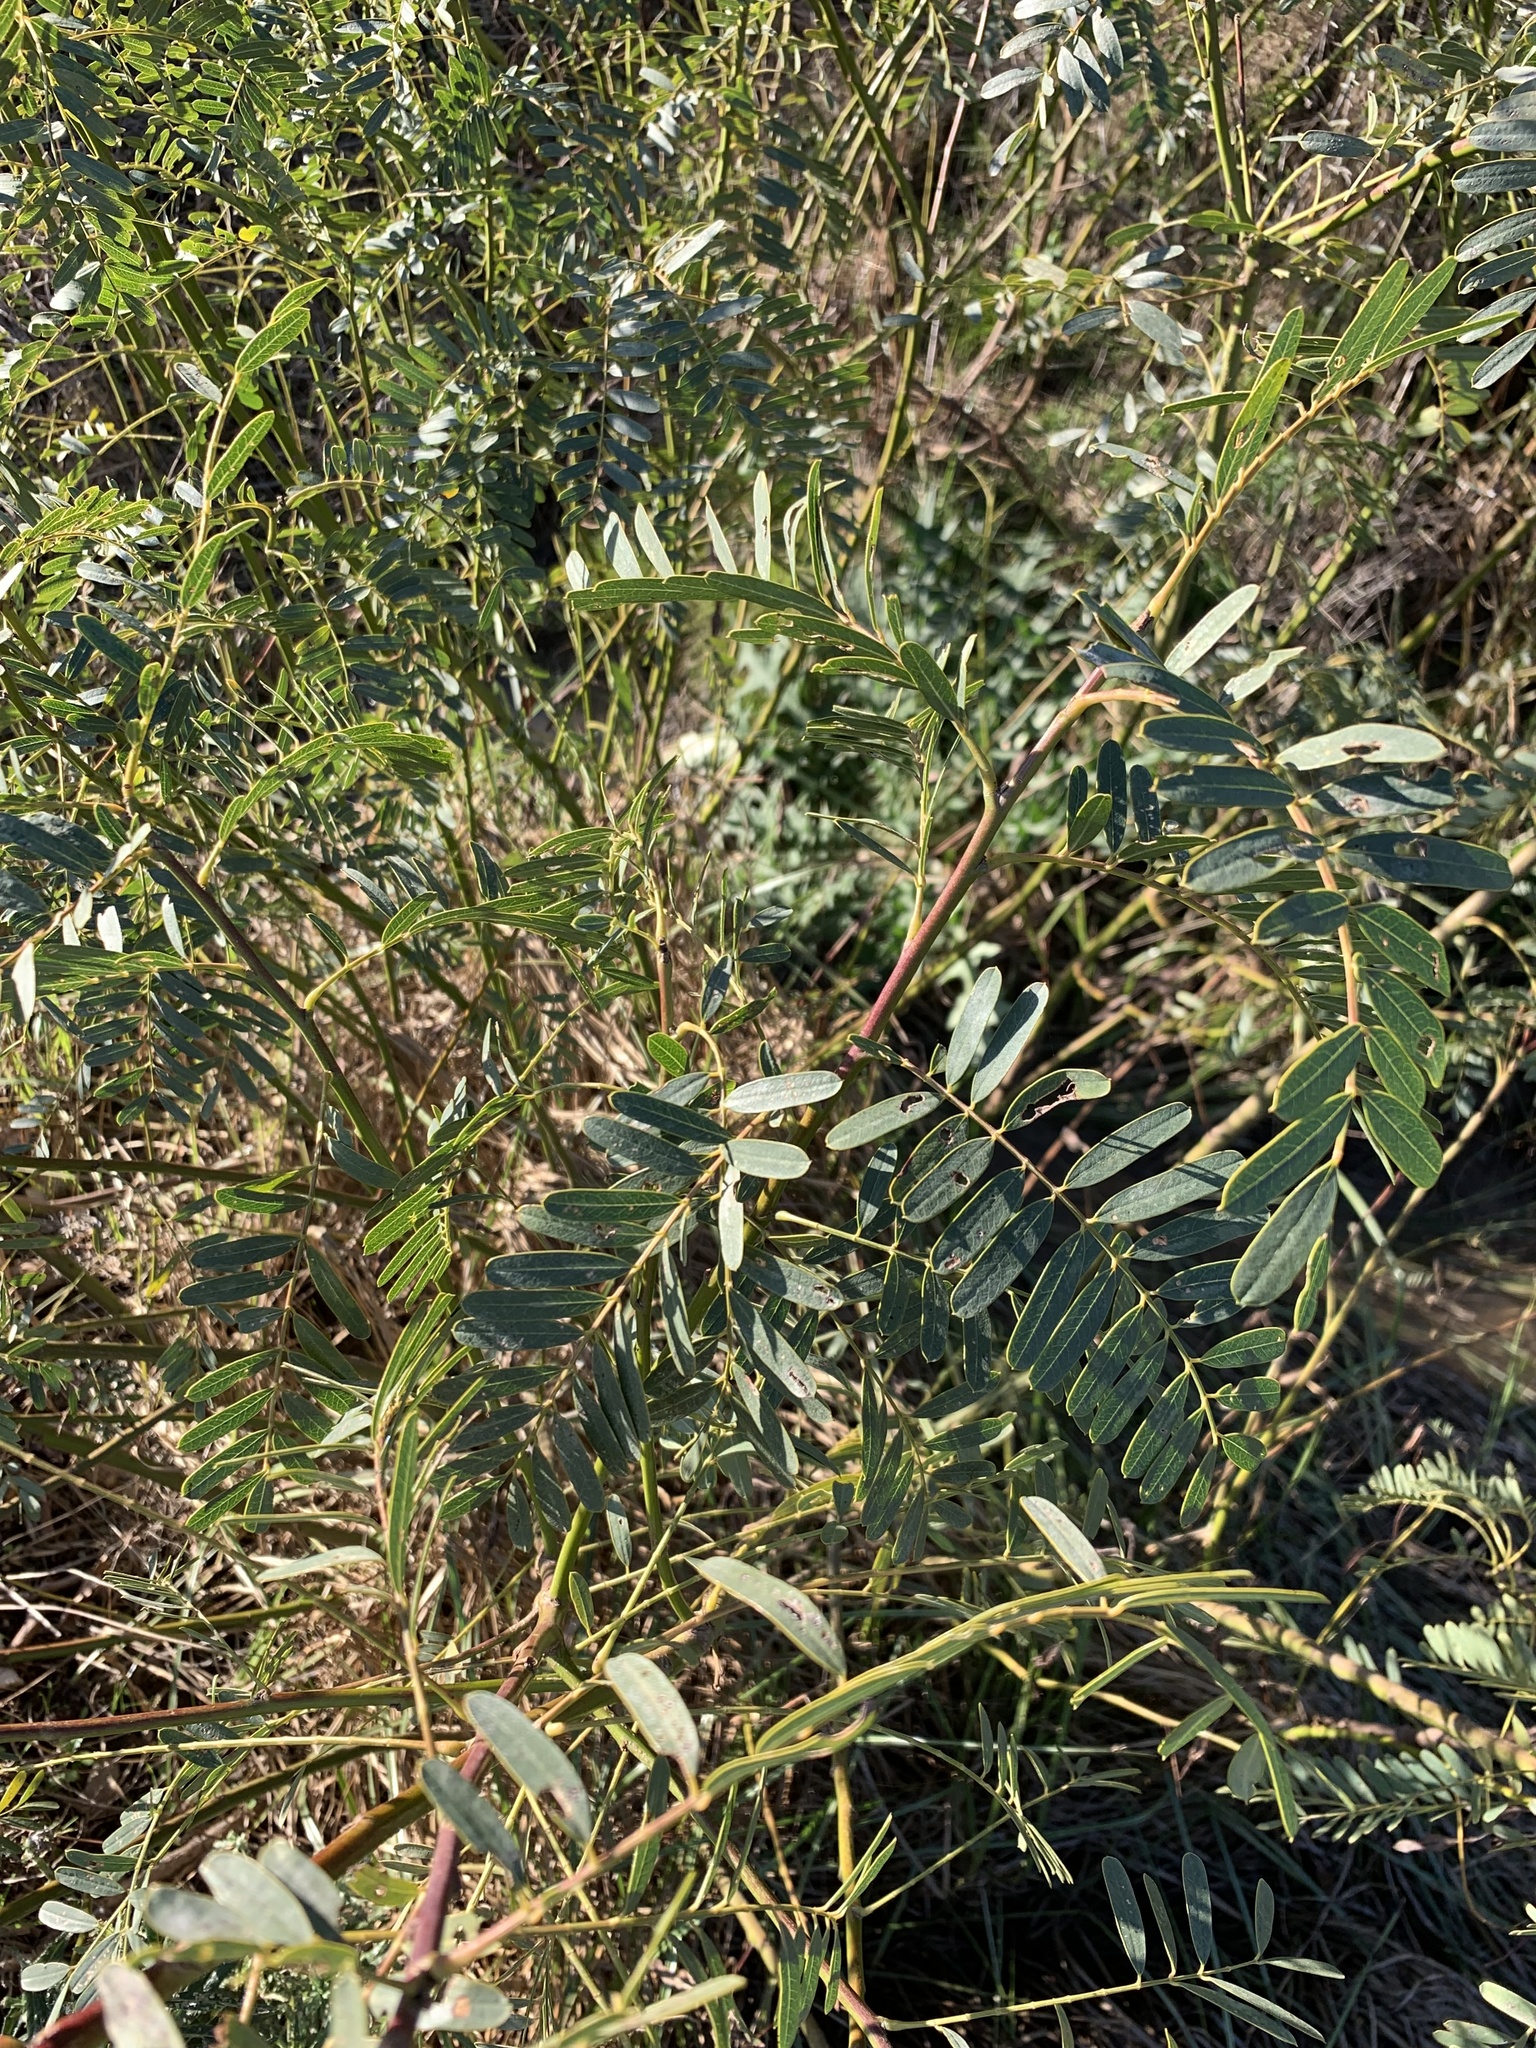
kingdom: Plantae
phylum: Tracheophyta
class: Magnoliopsida
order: Fabales
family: Fabaceae
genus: Sesbania
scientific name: Sesbania punicea
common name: Rattlebox
